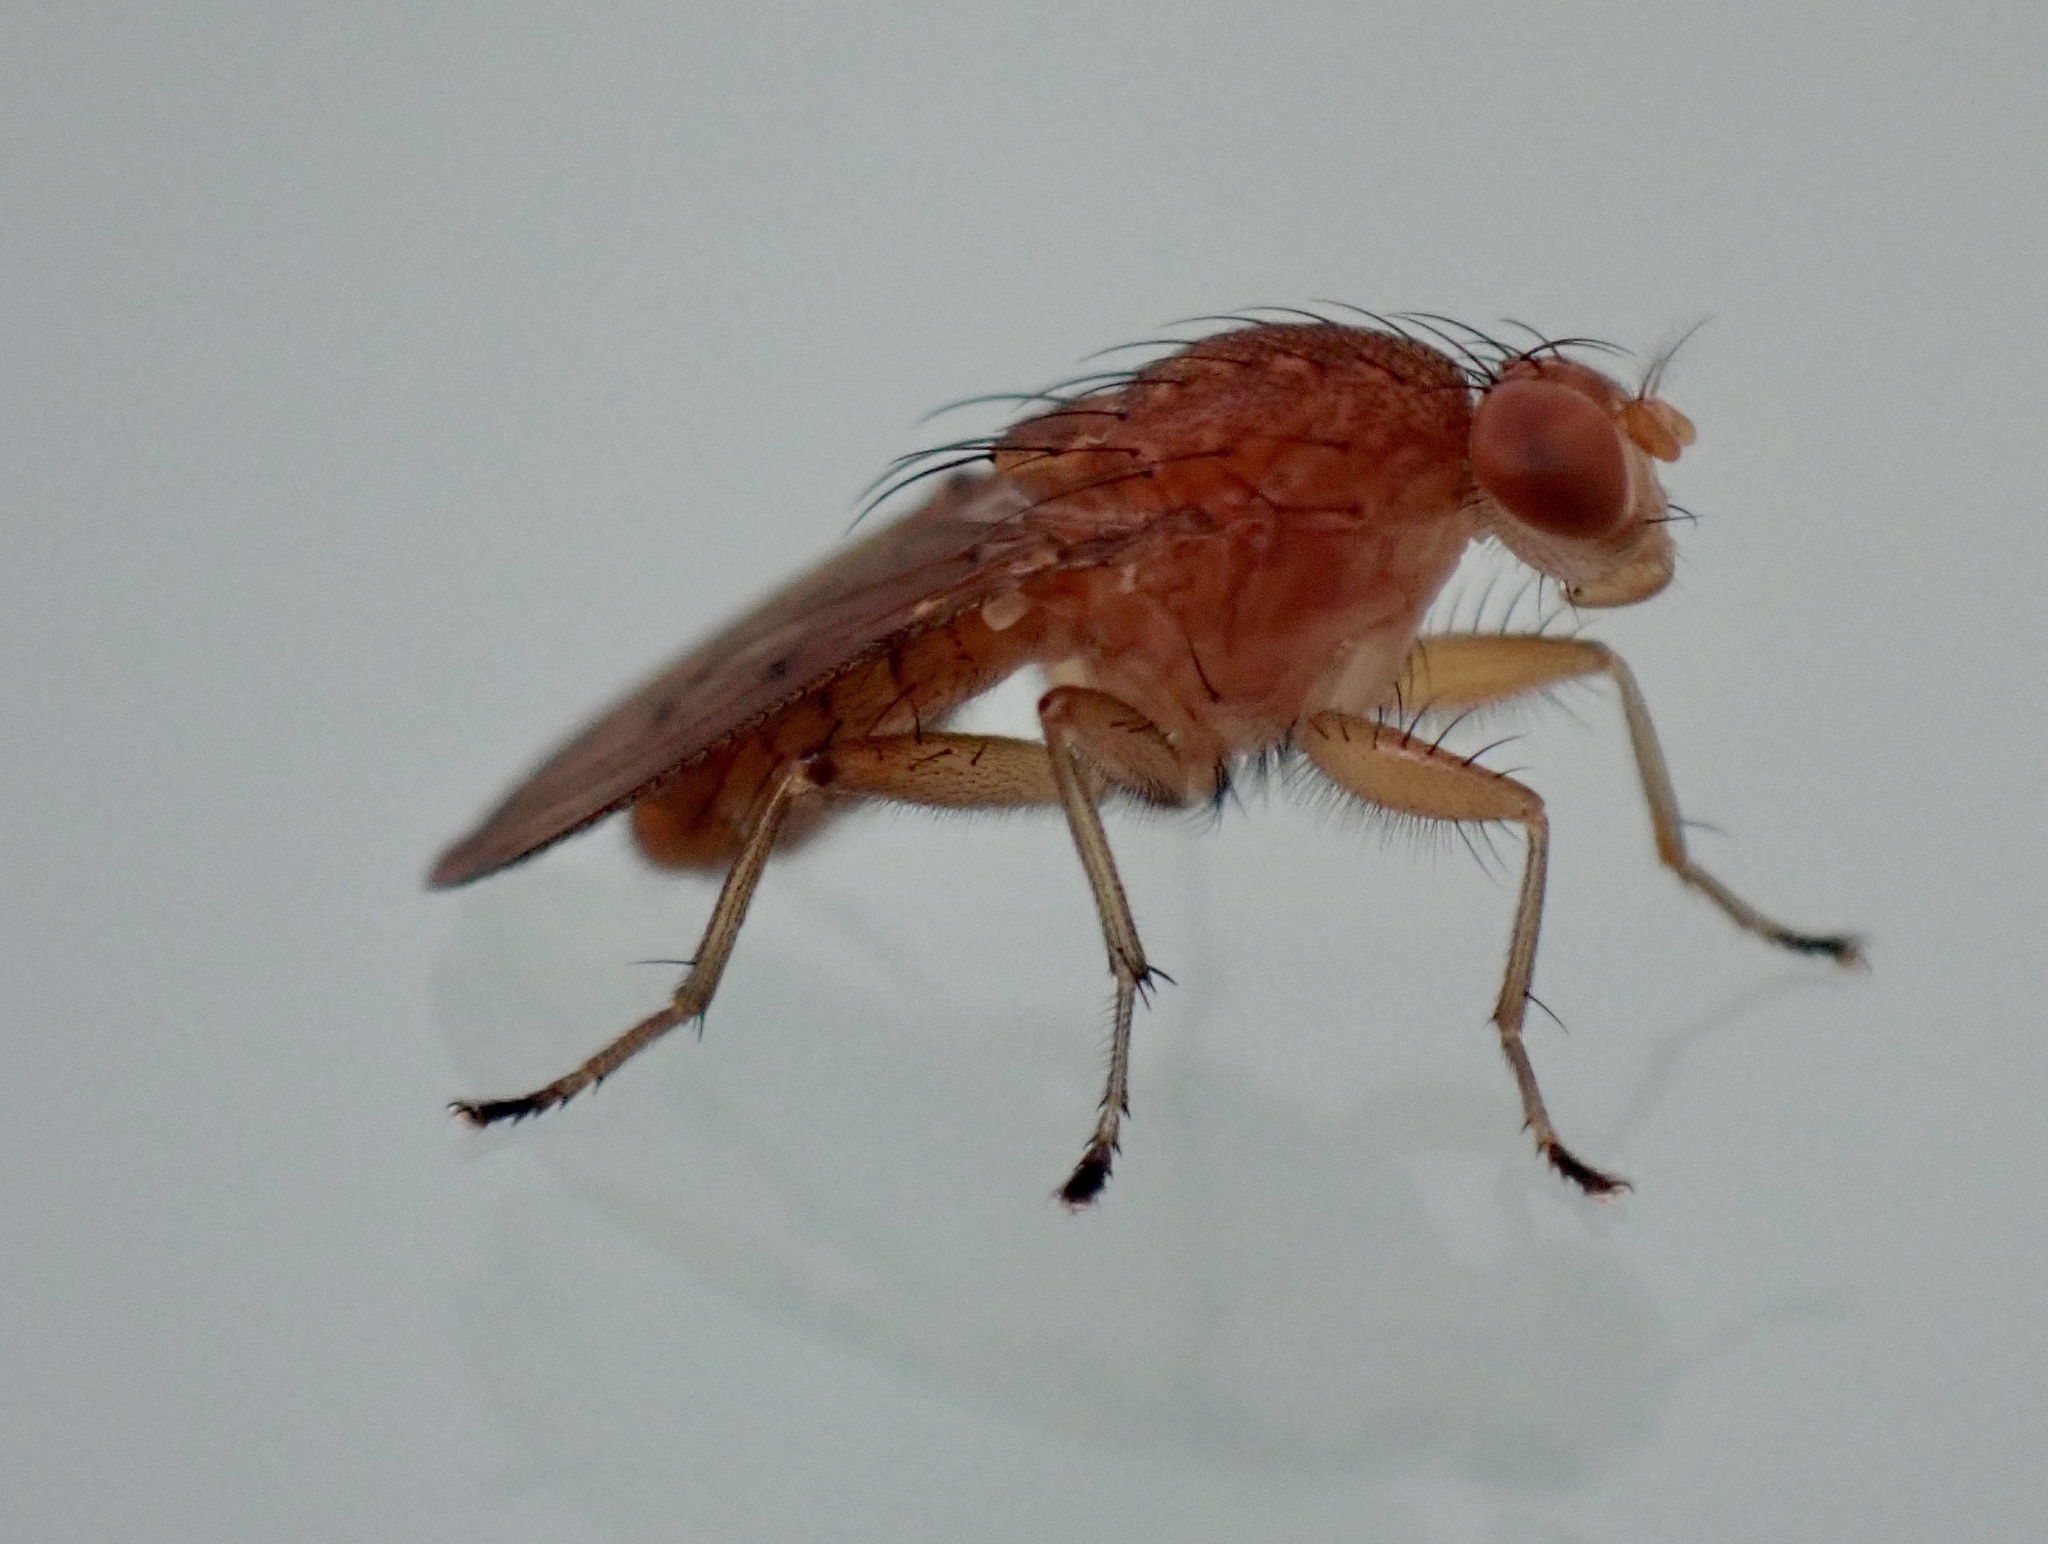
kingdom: Animalia
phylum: Arthropoda
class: Insecta
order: Diptera
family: Heleomyzidae
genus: Suillia
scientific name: Suillia quinquepunctata
